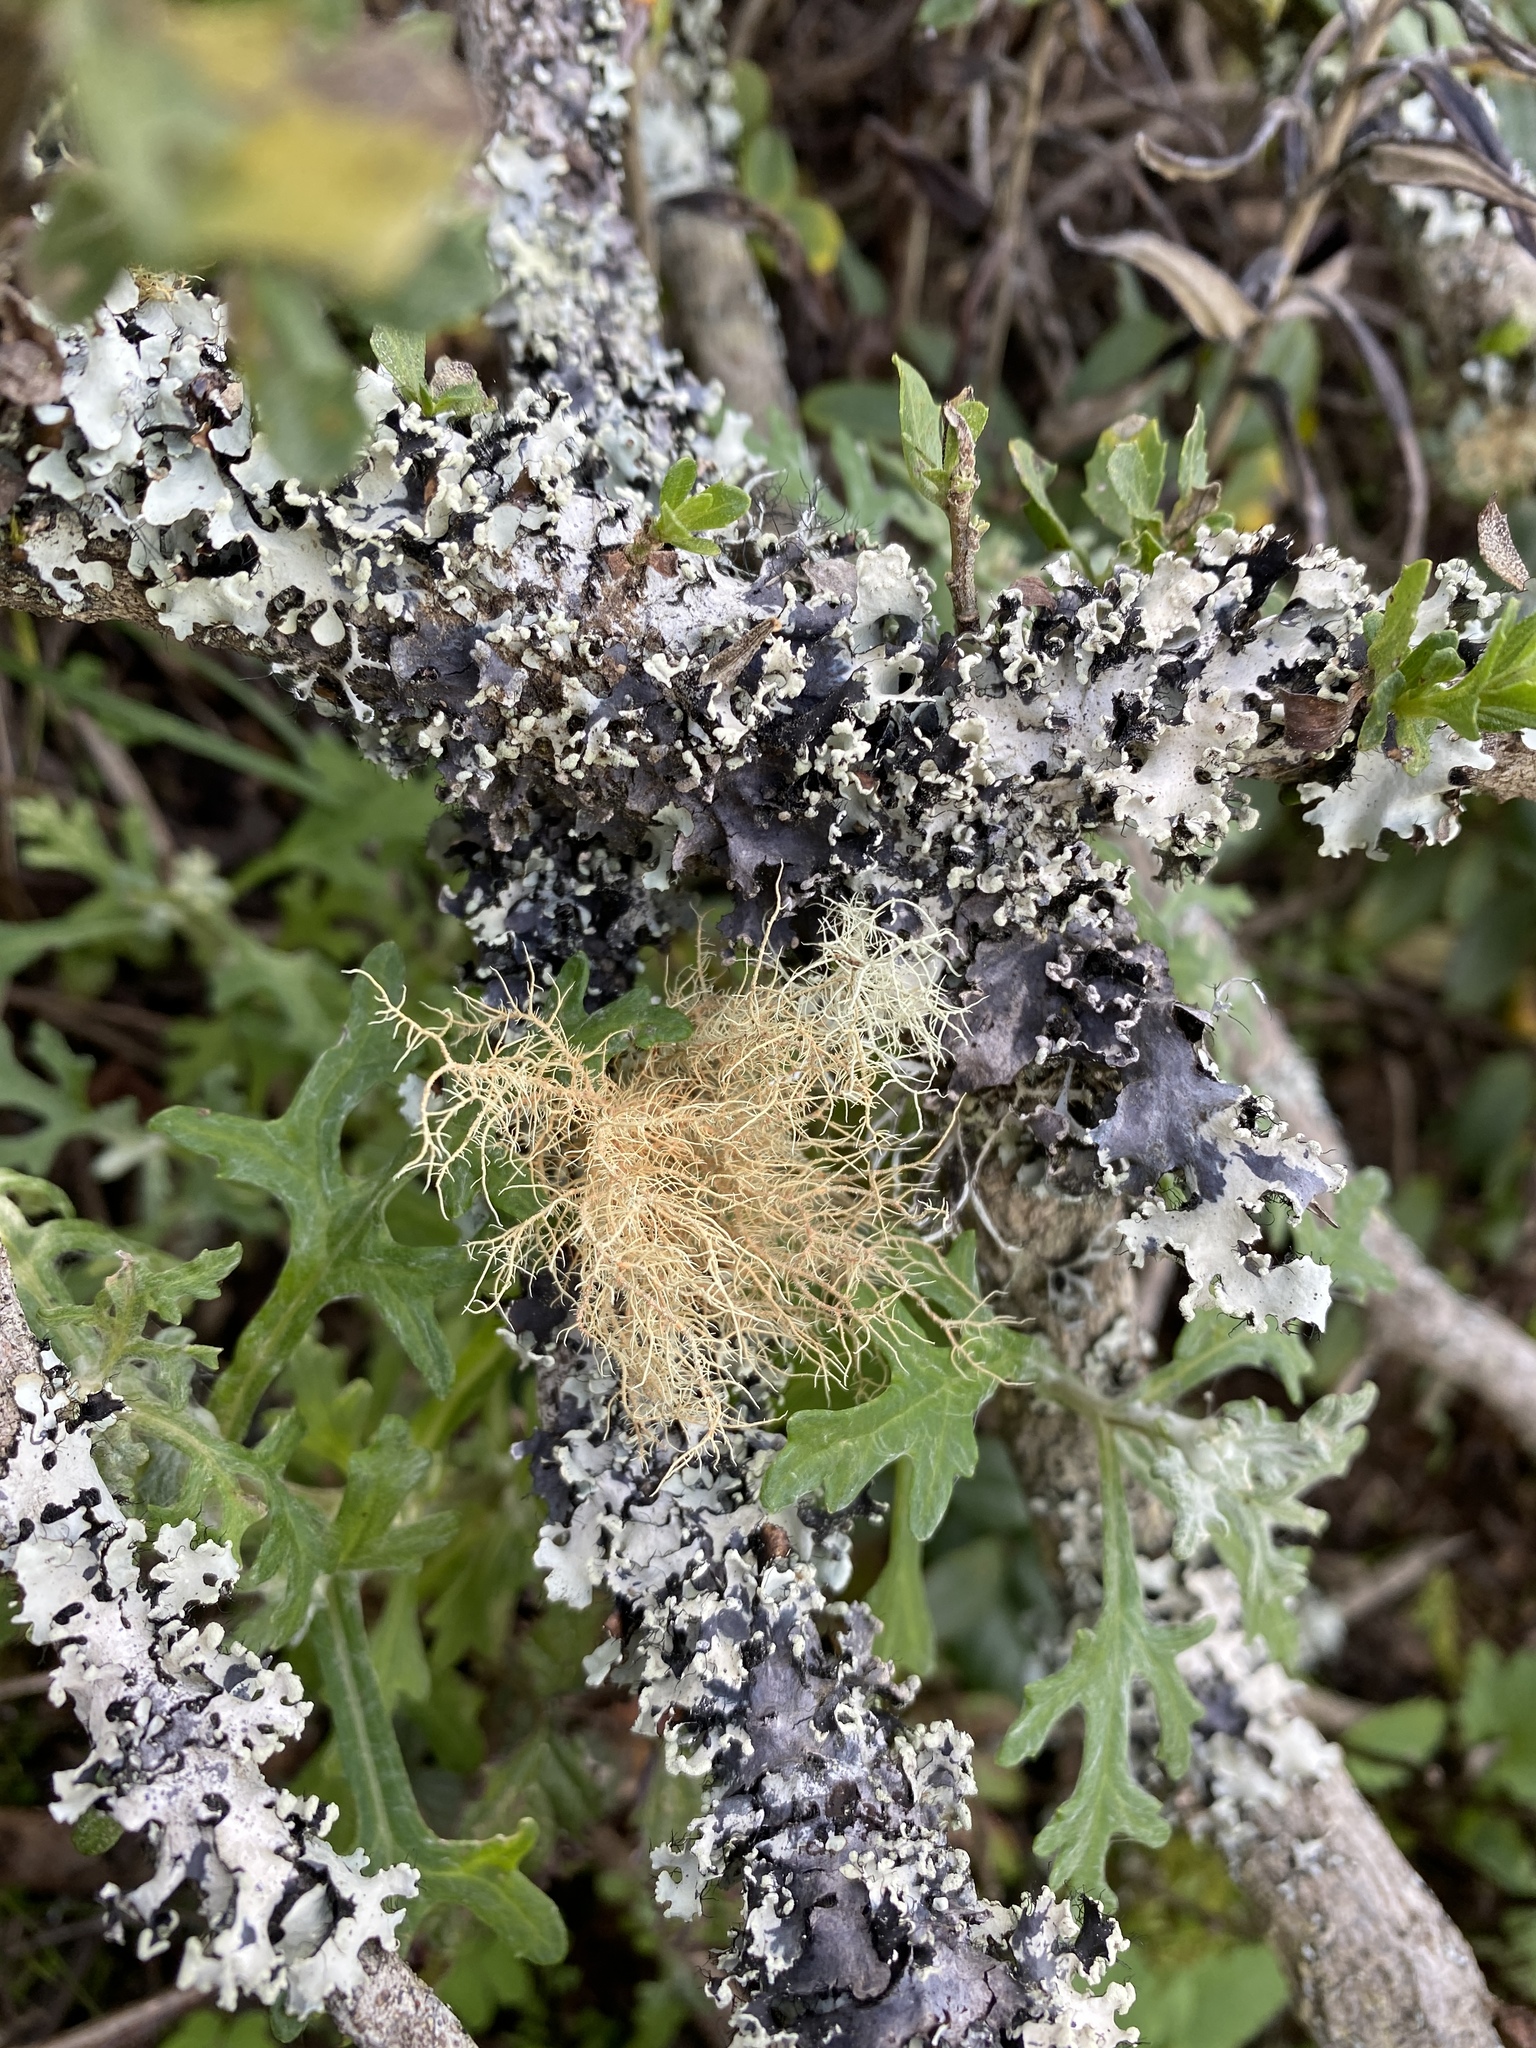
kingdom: Fungi
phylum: Ascomycota
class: Lecanoromycetes
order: Lecanorales
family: Parmeliaceae
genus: Usnea
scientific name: Usnea rubicunda
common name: Red beard lichen
